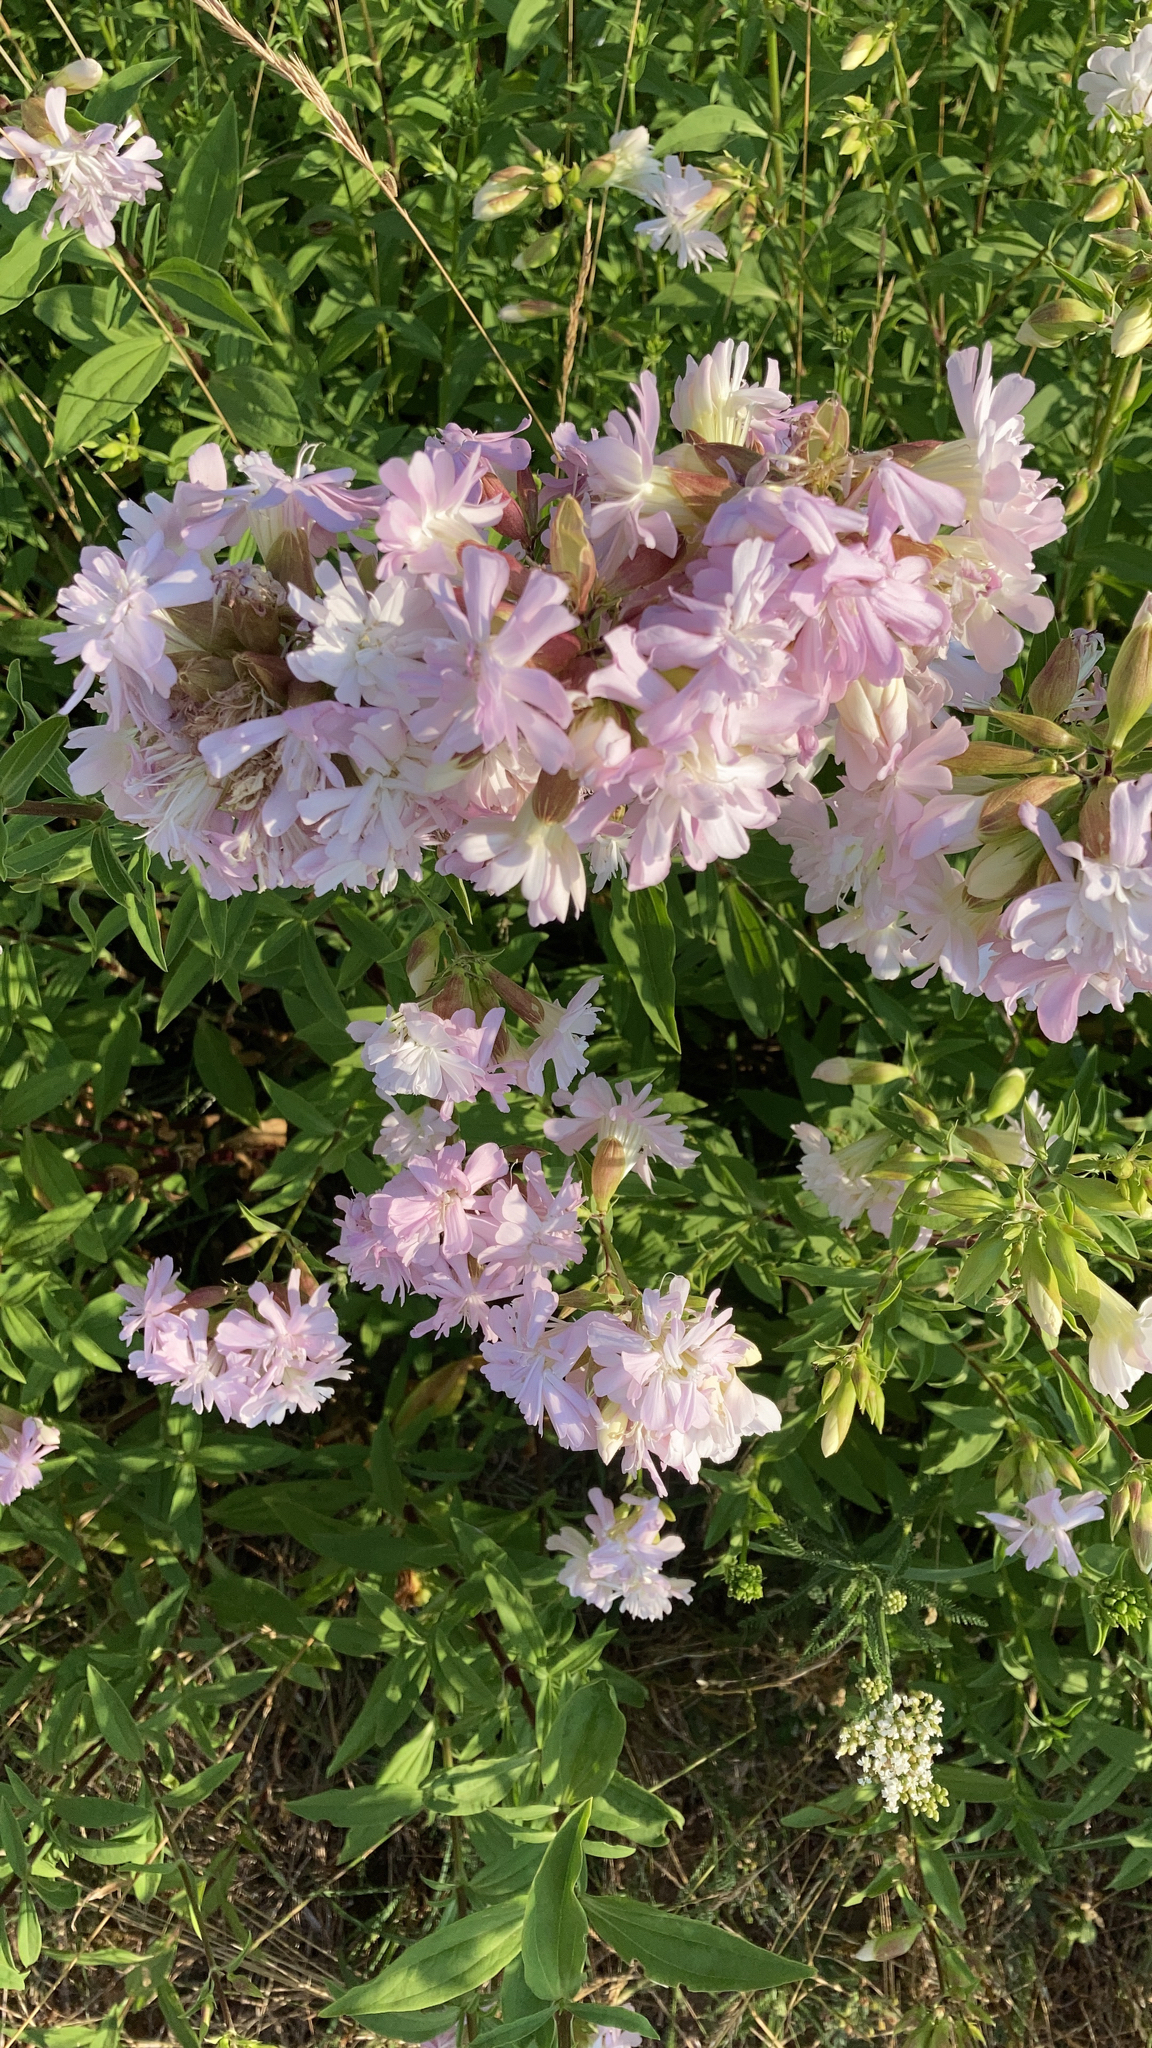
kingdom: Plantae
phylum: Tracheophyta
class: Magnoliopsida
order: Caryophyllales
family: Caryophyllaceae
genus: Saponaria
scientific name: Saponaria officinalis
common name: Soapwort
